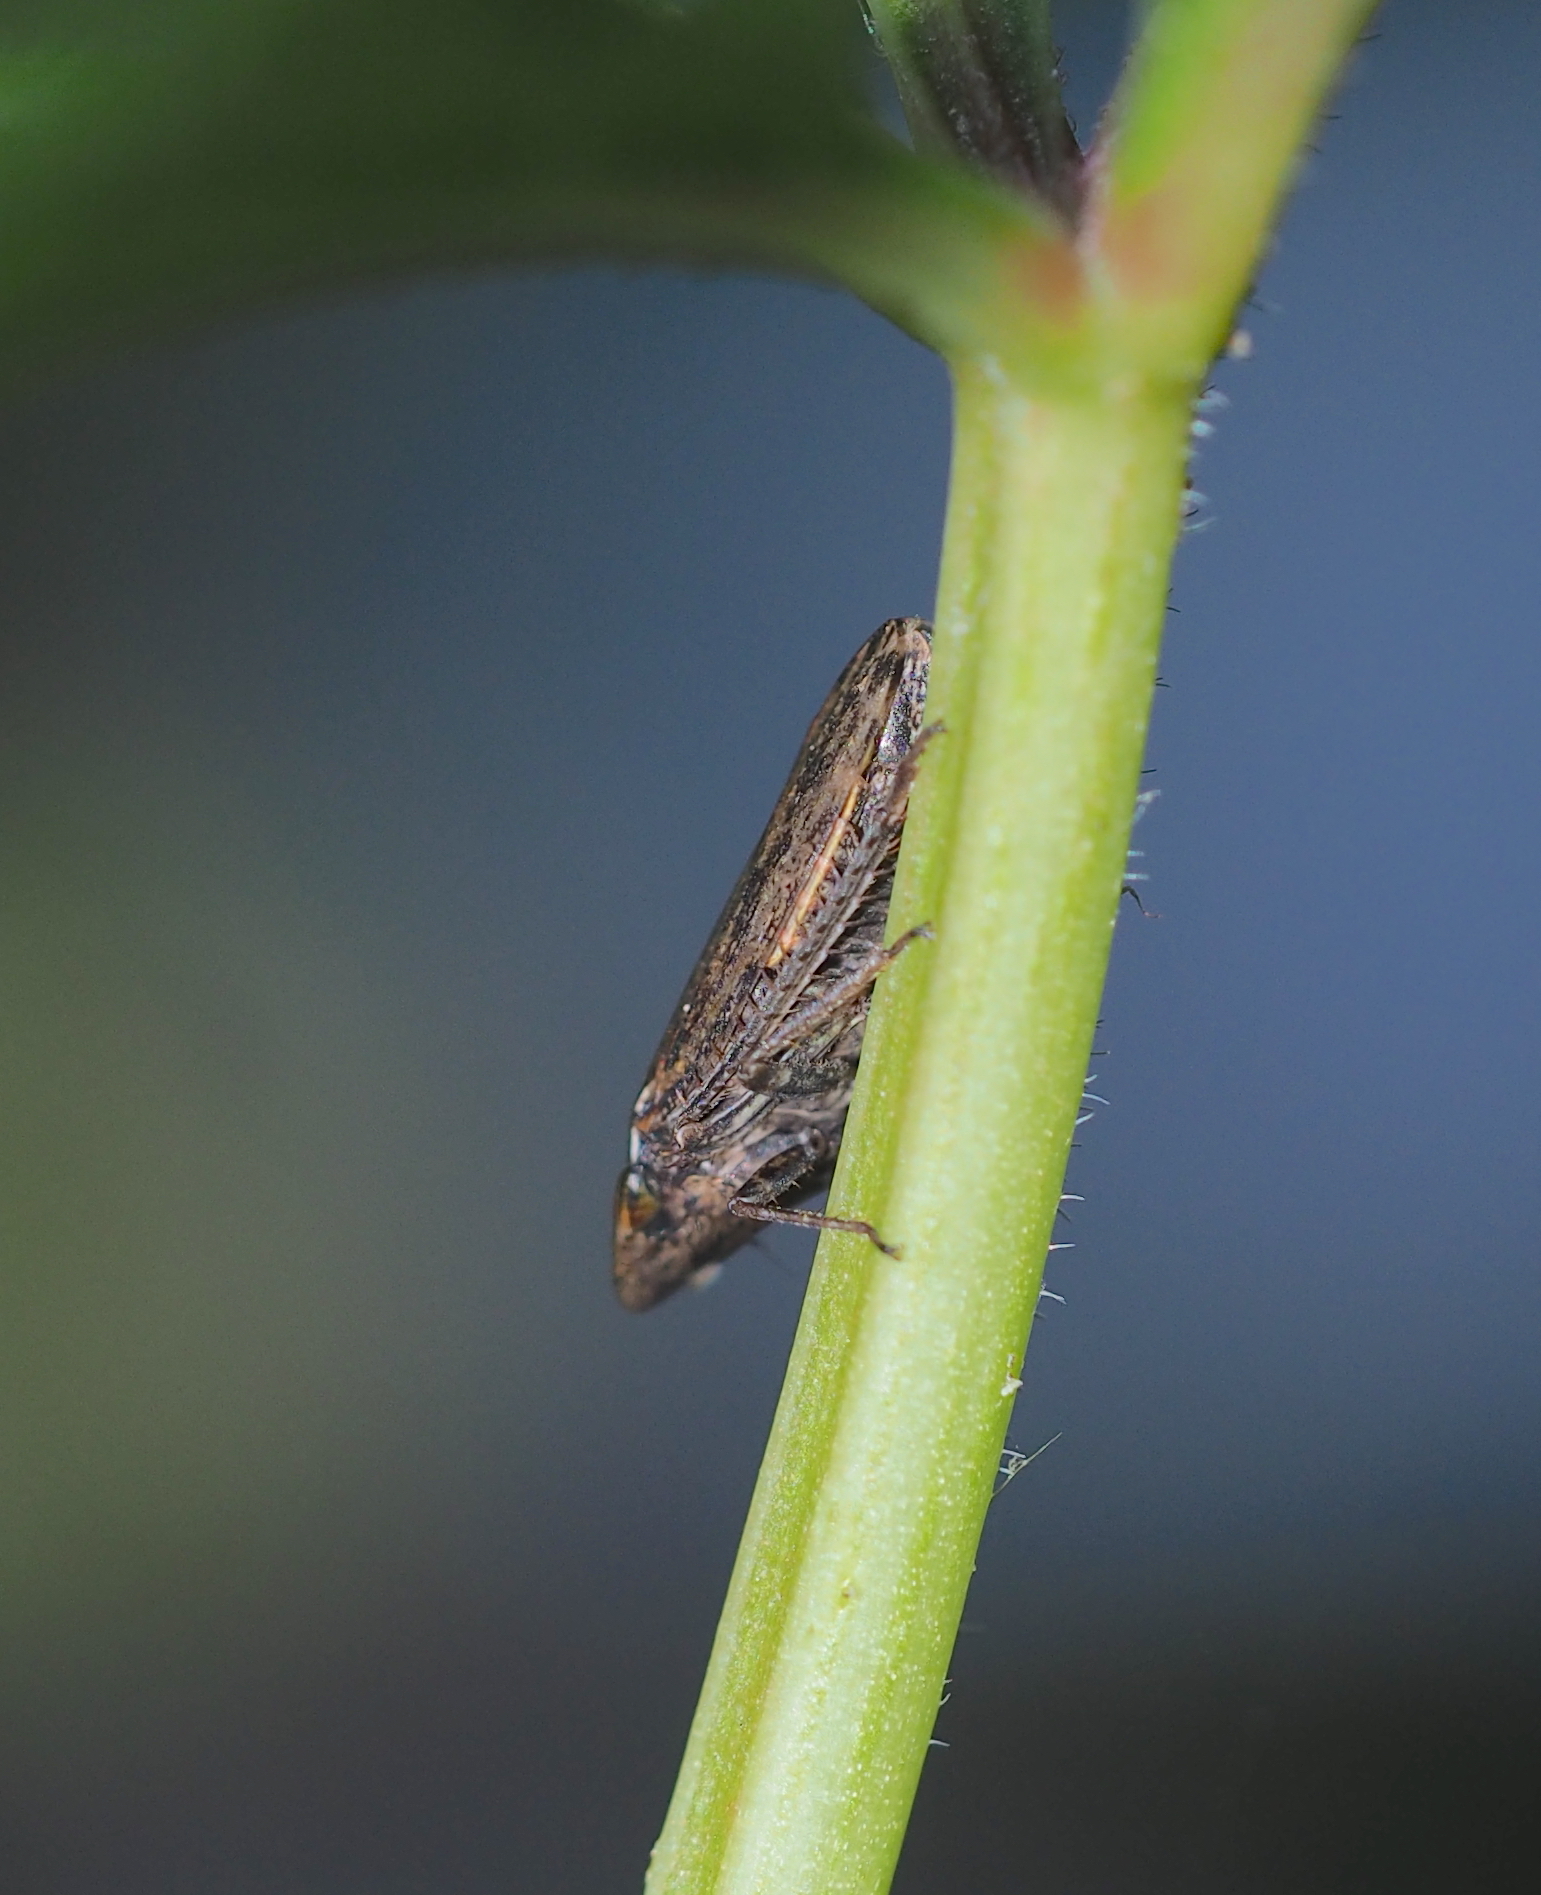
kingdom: Animalia
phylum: Arthropoda
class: Insecta
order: Hemiptera
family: Cicadellidae
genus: Aphrodes
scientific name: Aphrodes makarovi
